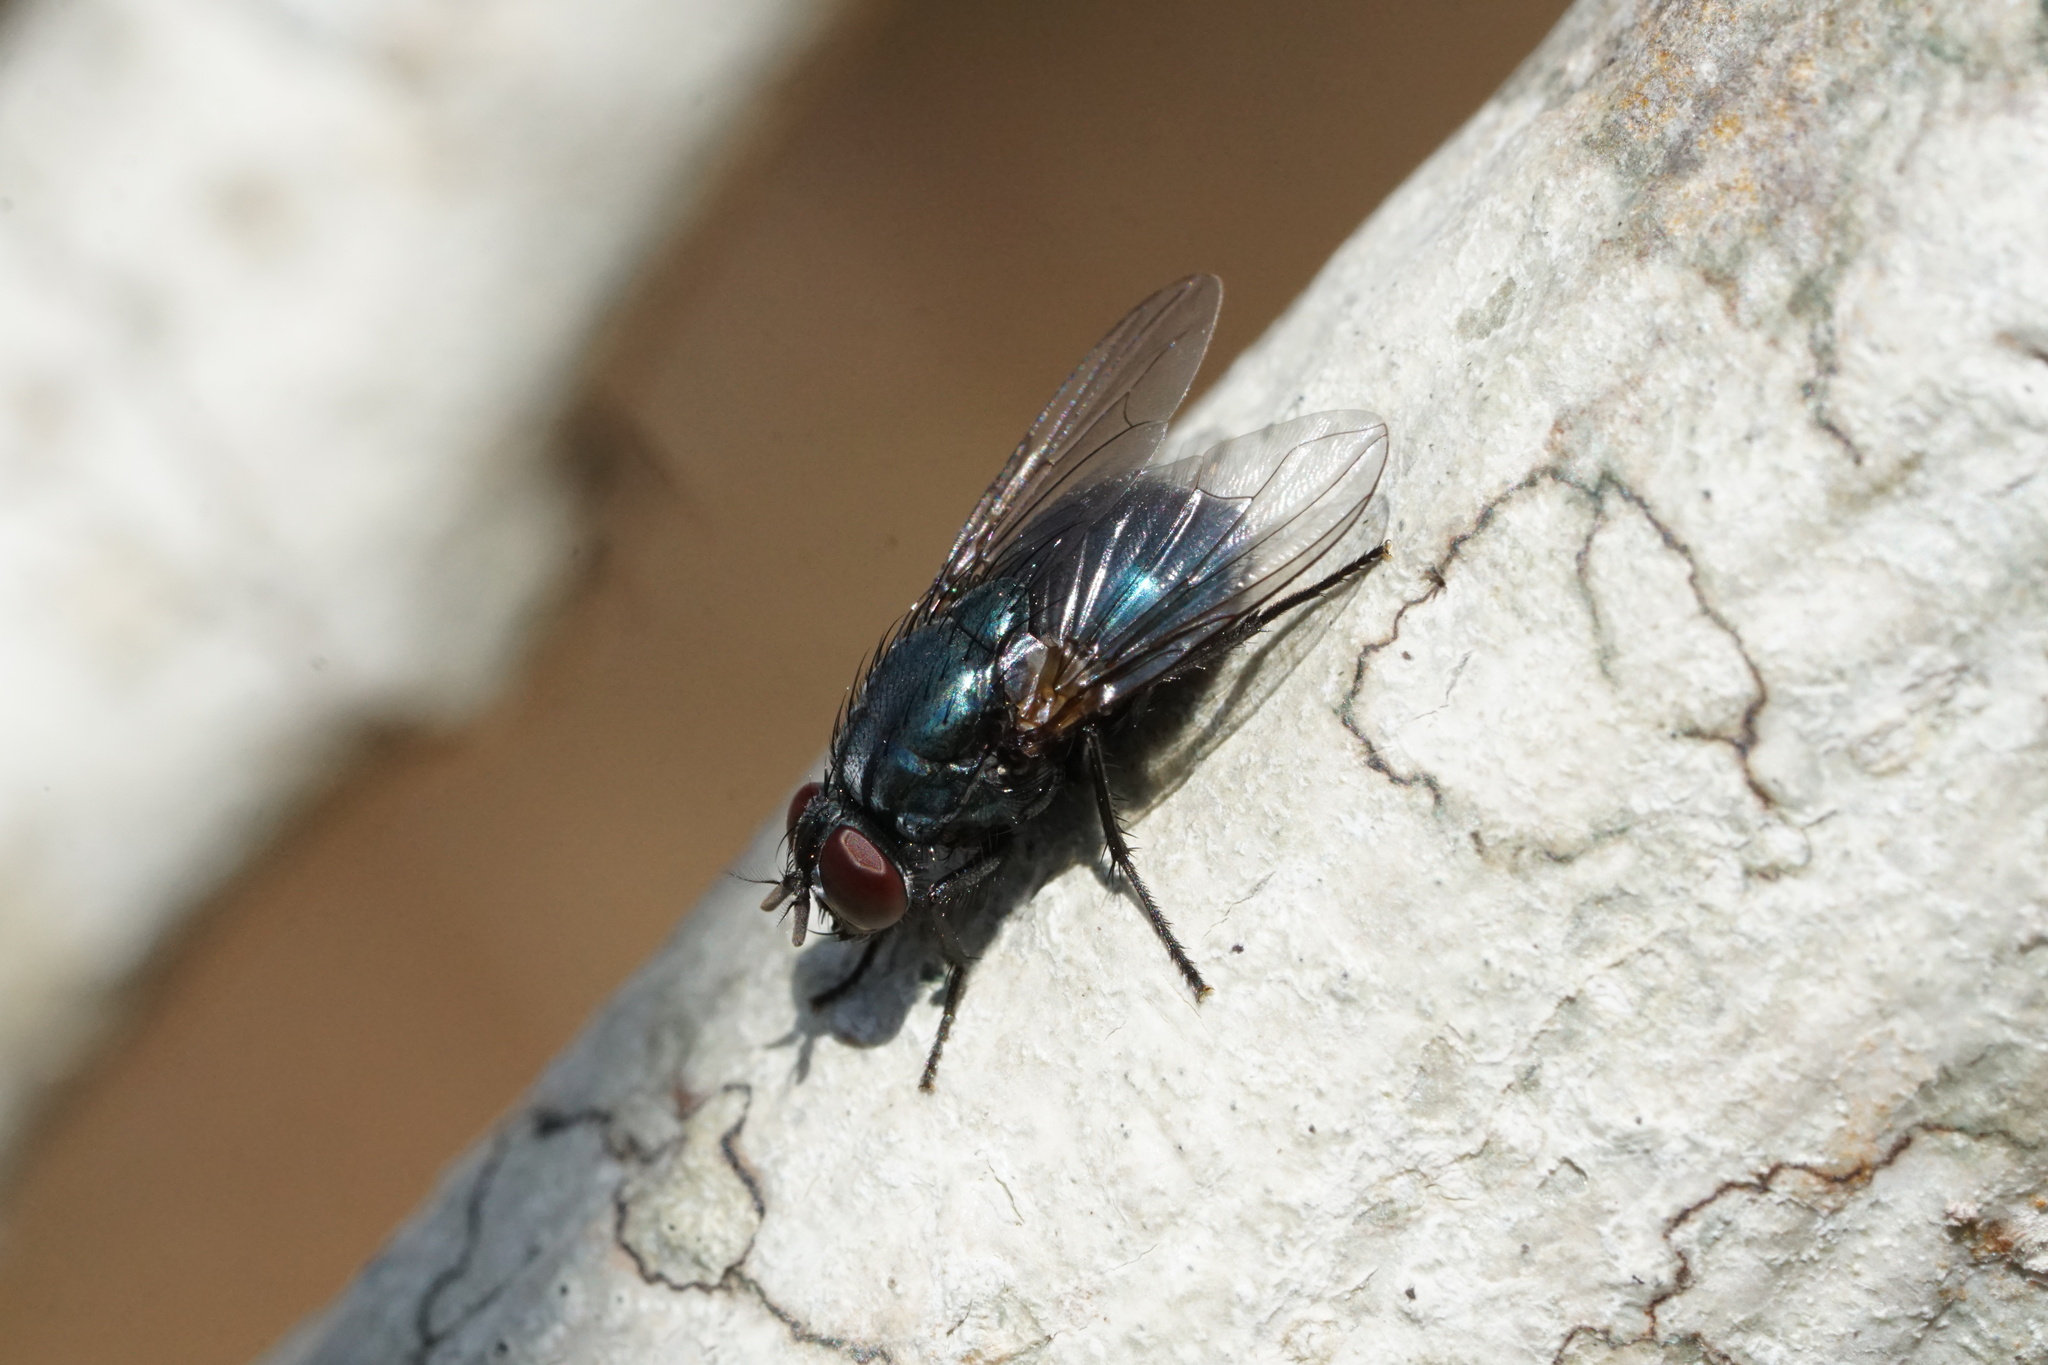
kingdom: Animalia
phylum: Arthropoda
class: Insecta
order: Diptera
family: Muscidae
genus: Eudasyphora
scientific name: Eudasyphora cyanicolor
